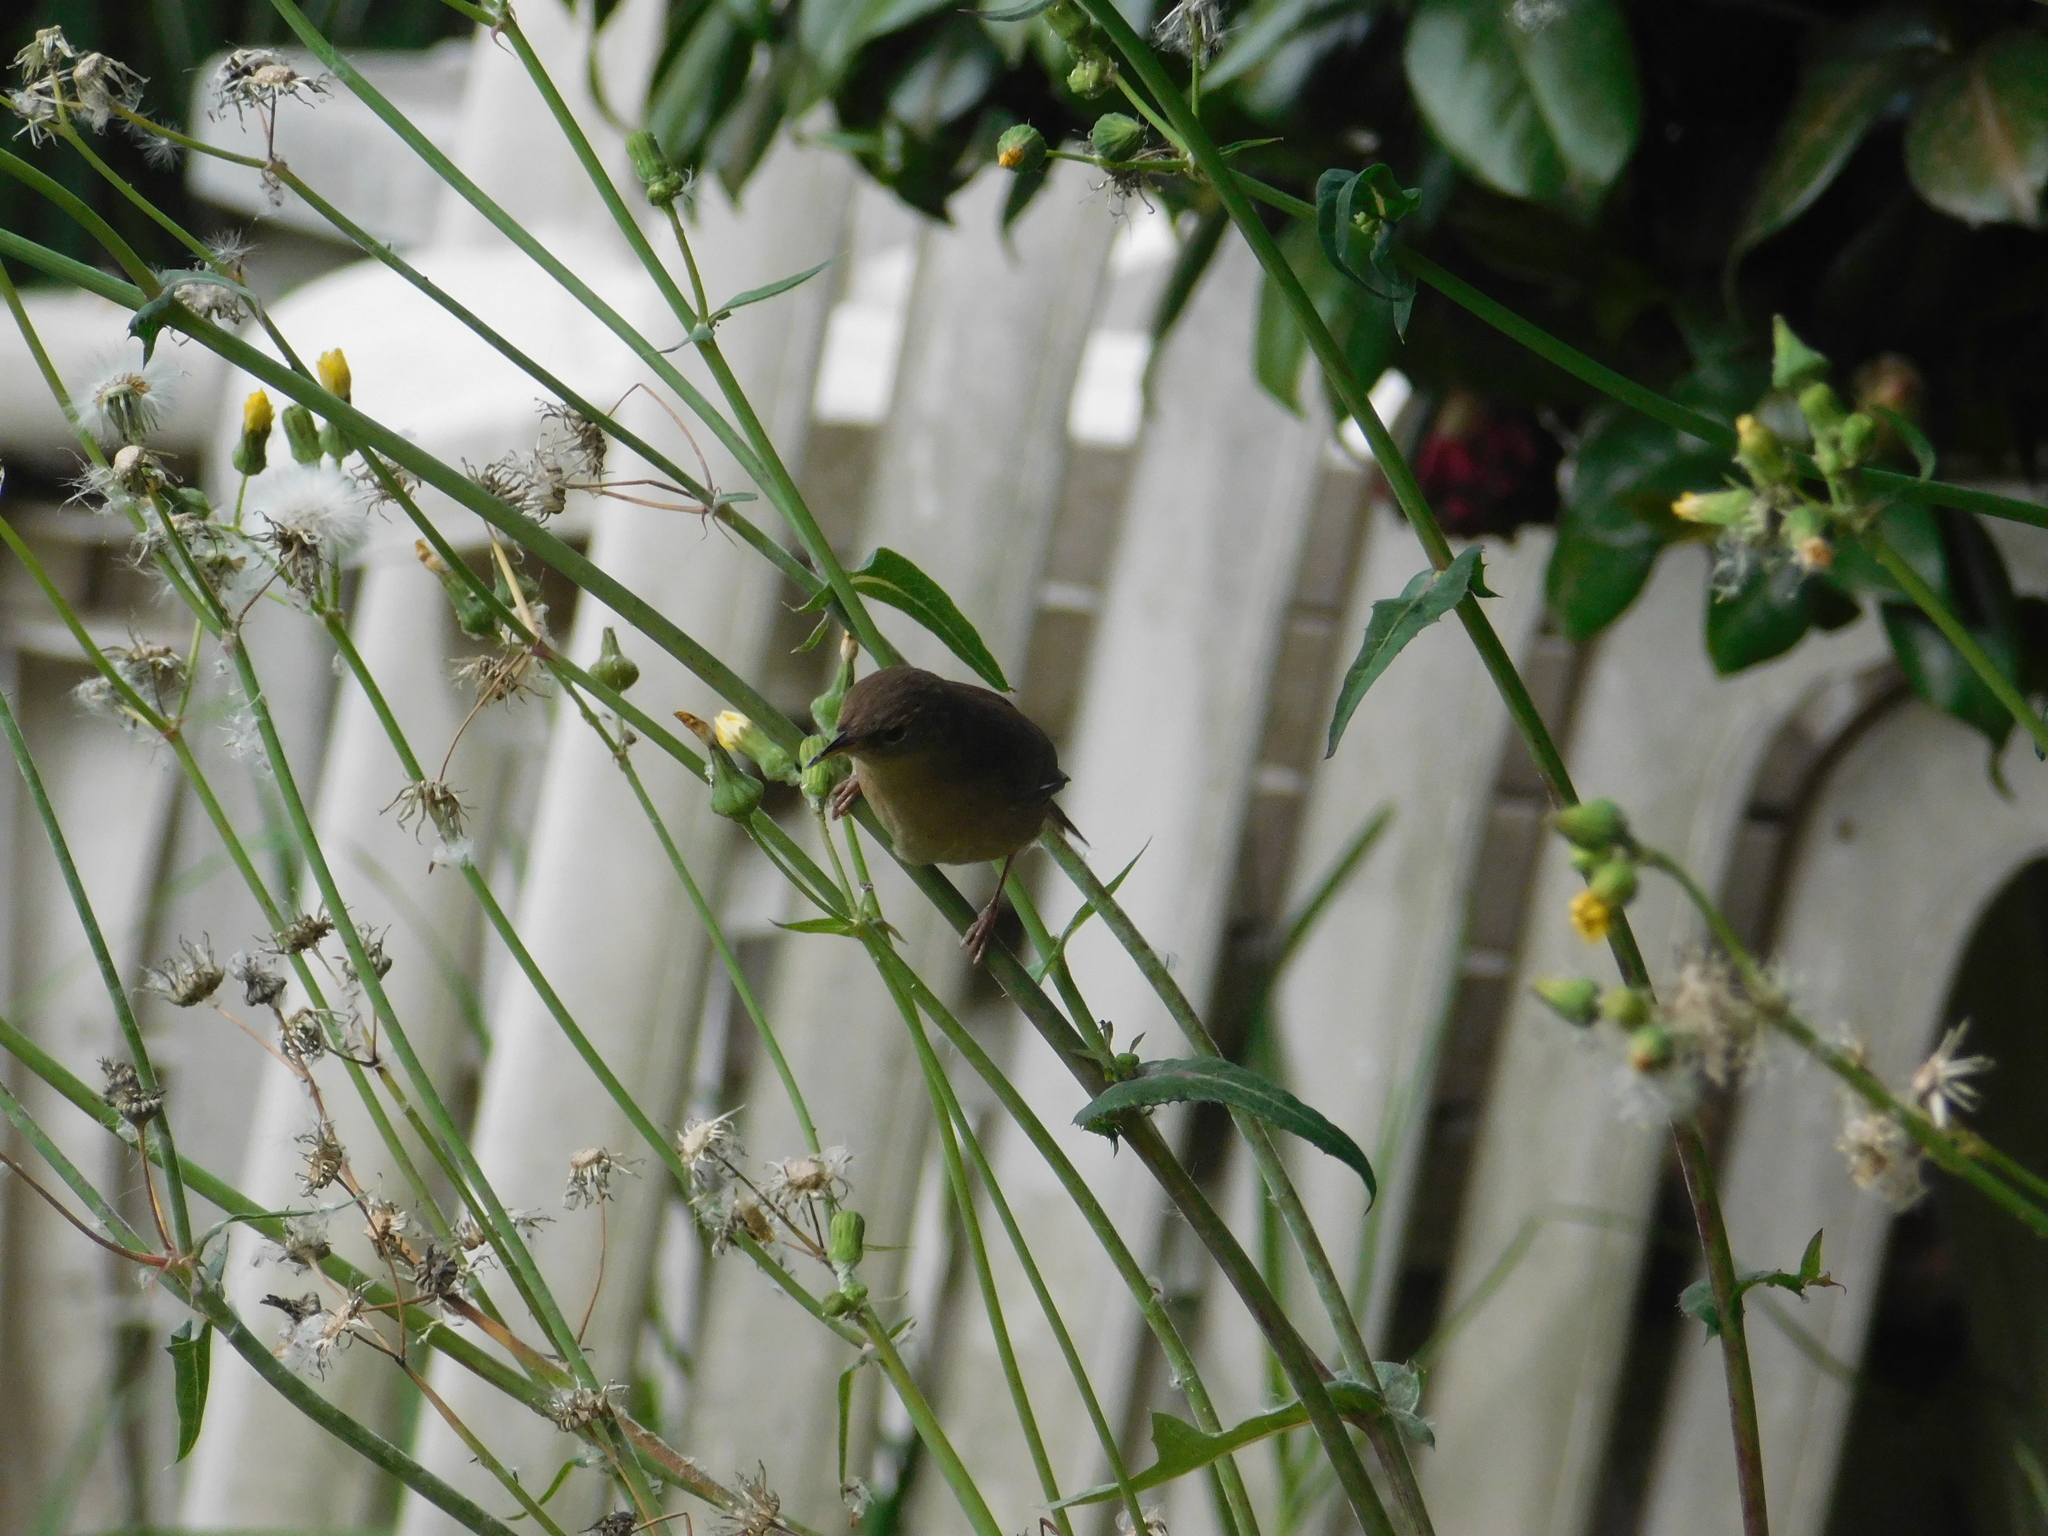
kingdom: Animalia
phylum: Chordata
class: Aves
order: Passeriformes
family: Troglodytidae
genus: Troglodytes
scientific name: Troglodytes aedon
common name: House wren
